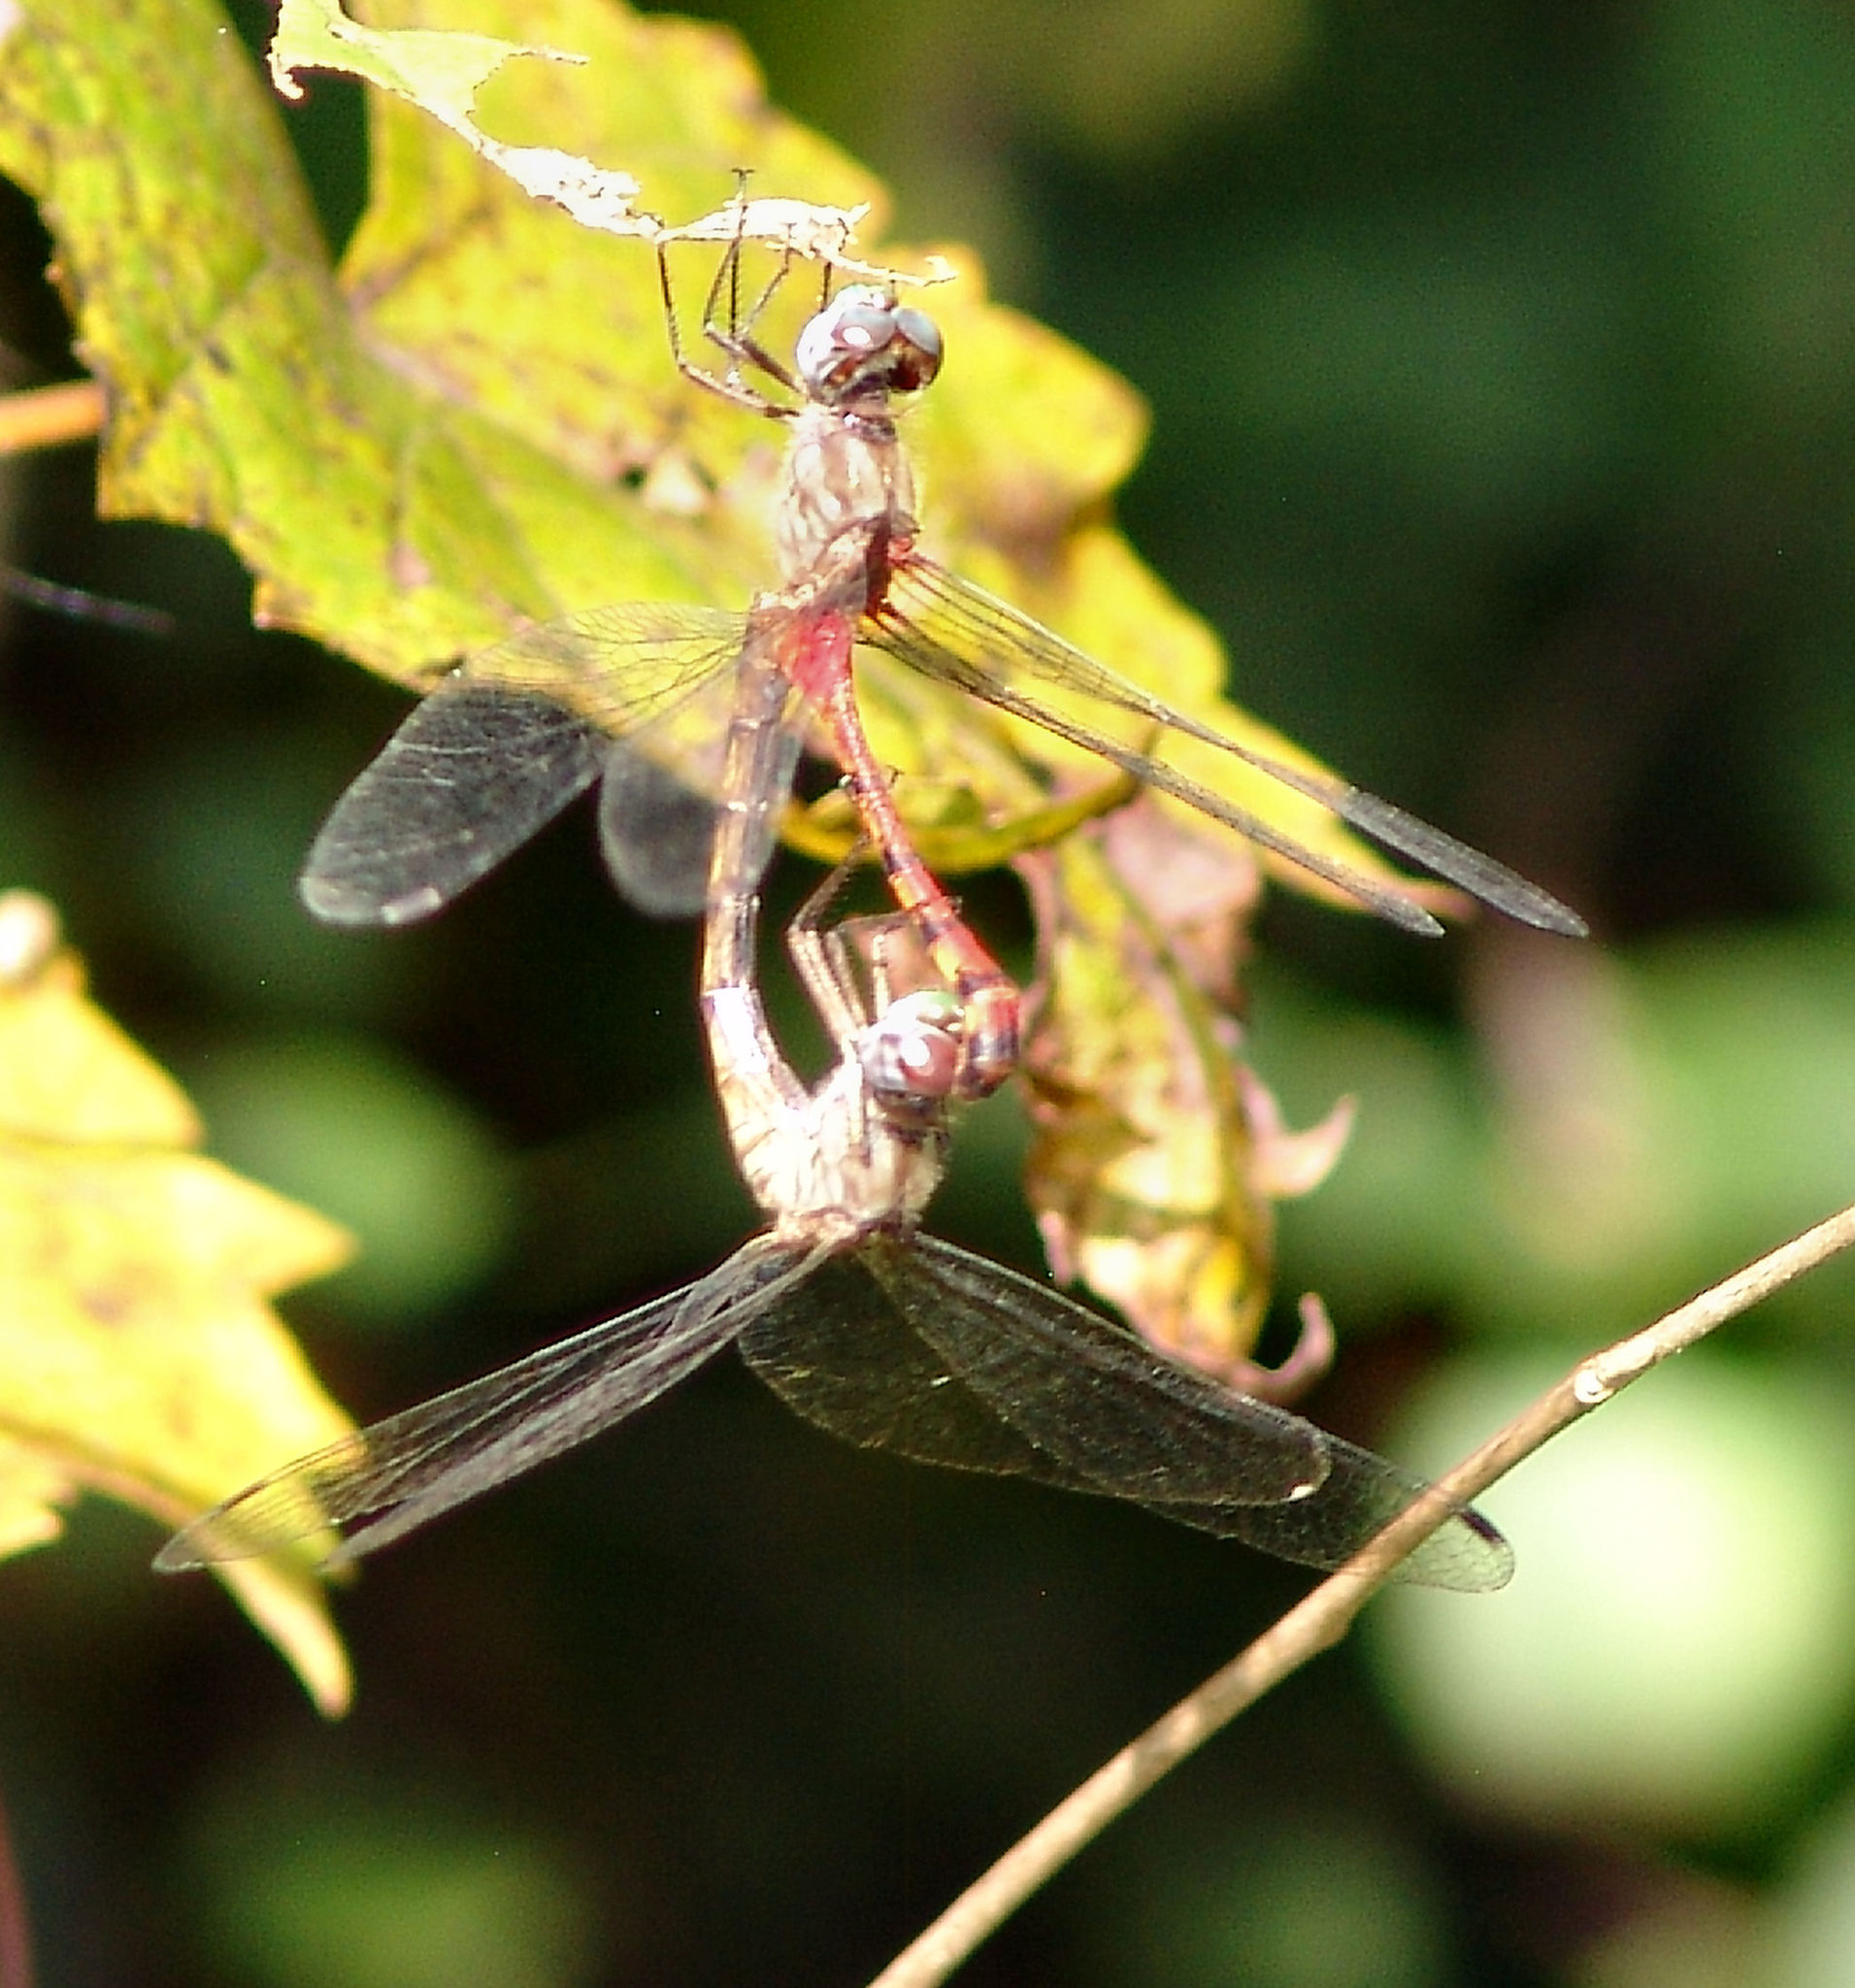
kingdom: Animalia
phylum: Arthropoda
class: Insecta
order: Odonata
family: Libellulidae
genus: Sympetrum
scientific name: Sympetrum ambiguum
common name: Blue-faced meadowhawk
